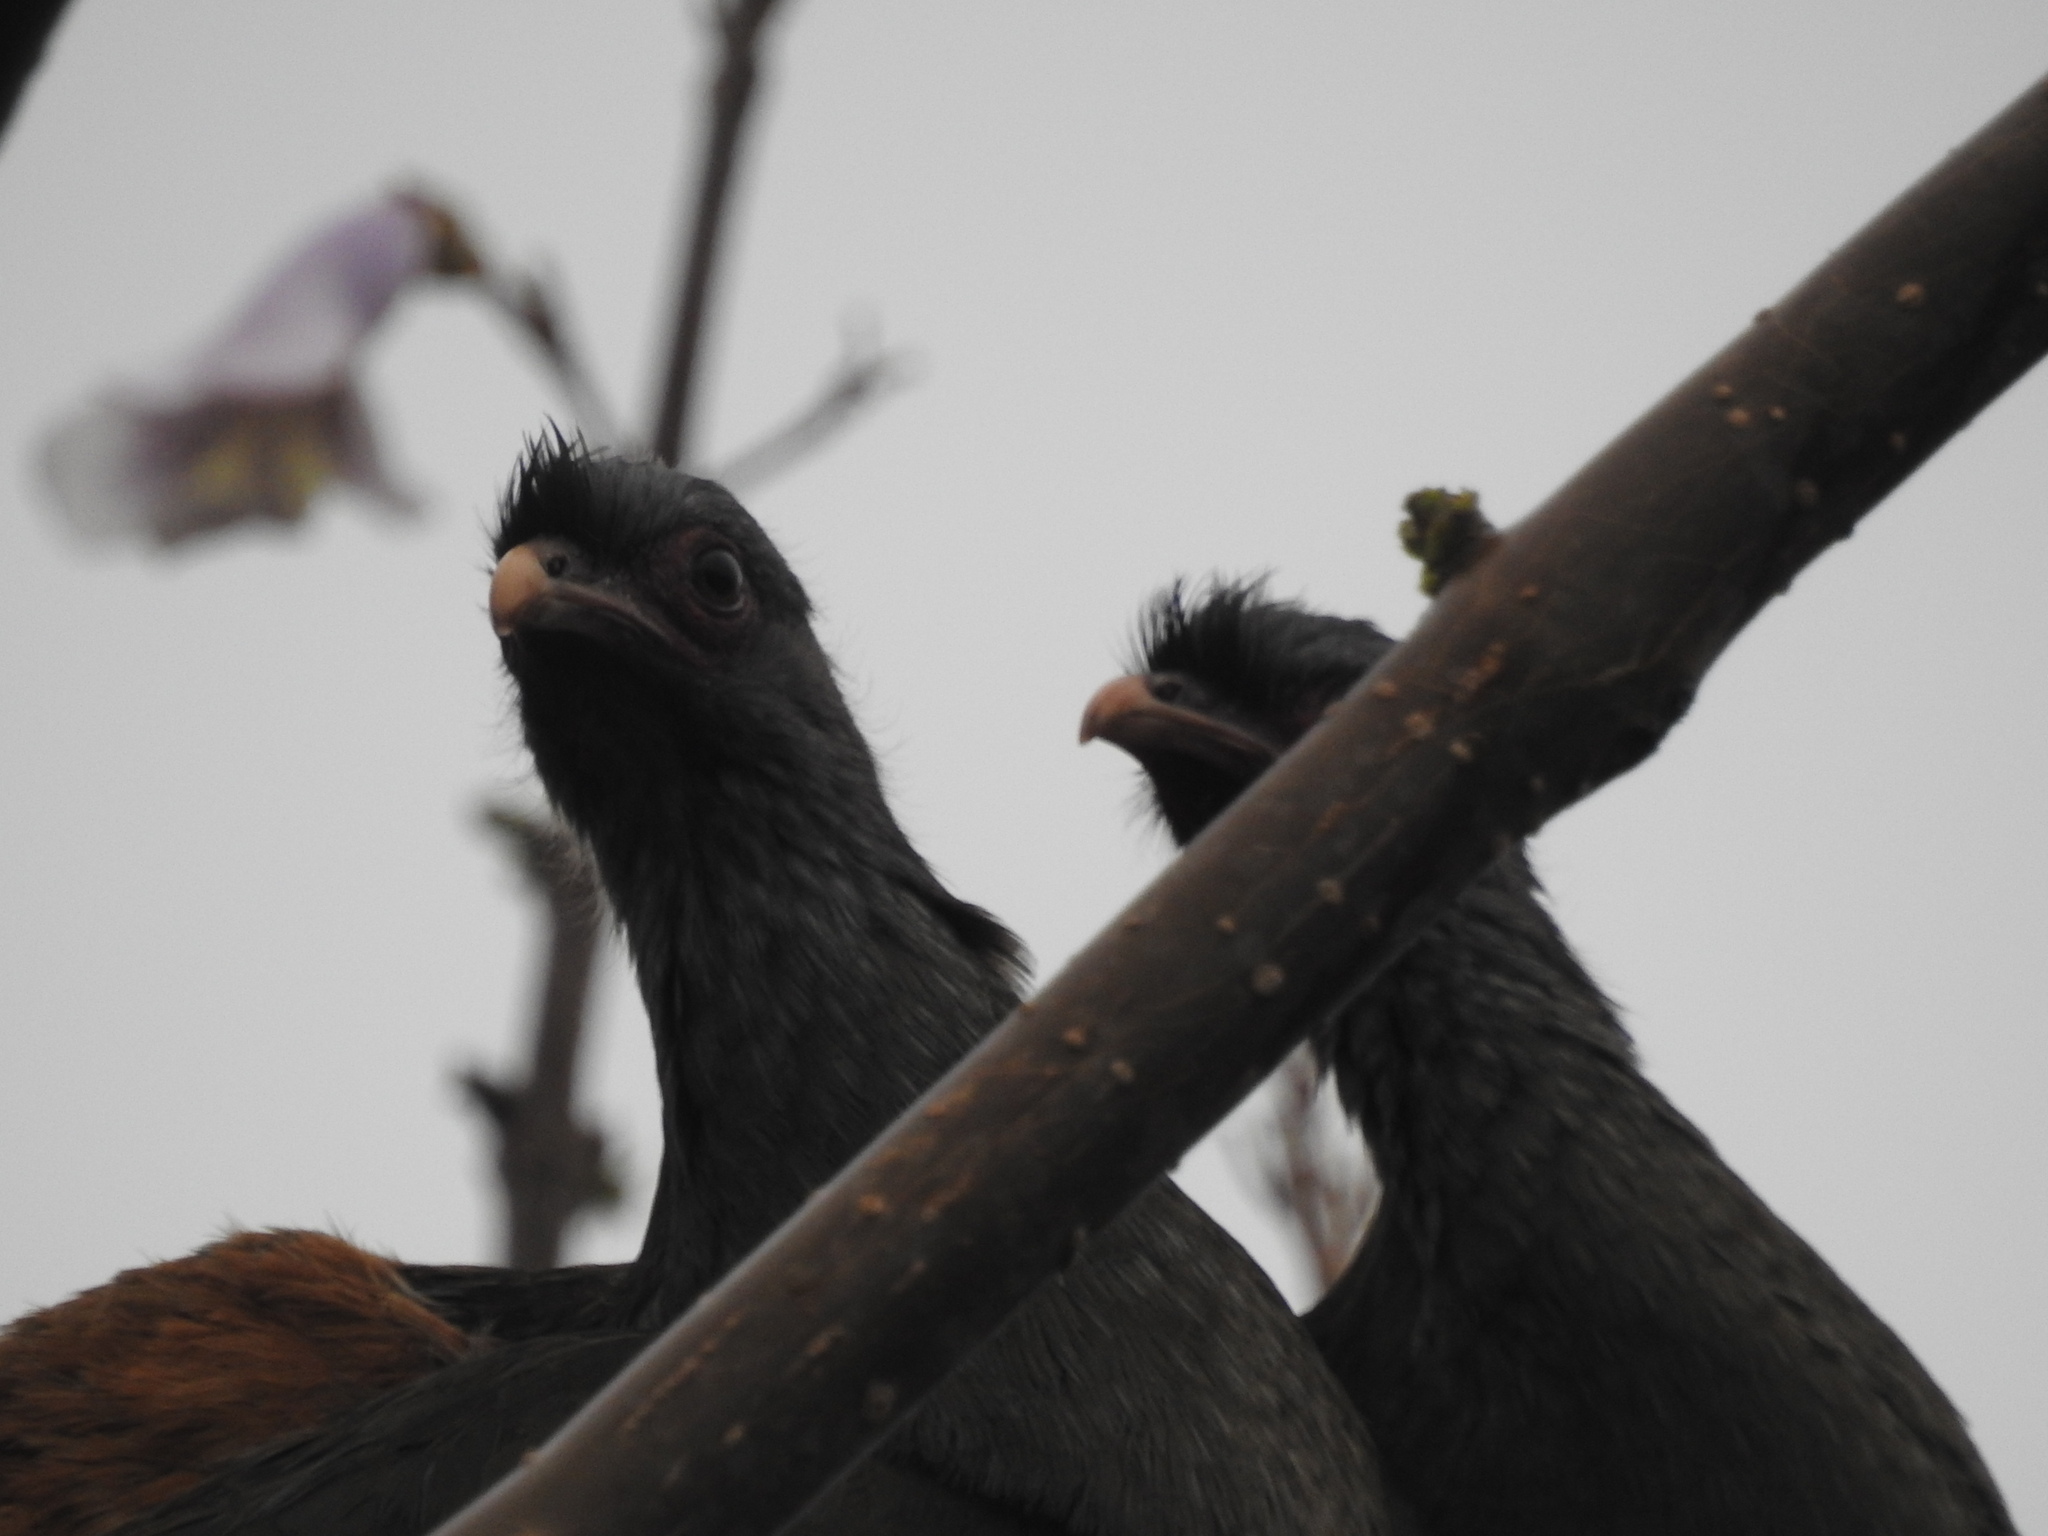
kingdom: Animalia
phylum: Chordata
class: Aves
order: Galliformes
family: Cracidae
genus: Ortalis
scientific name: Ortalis canicollis
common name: Chaco chachalaca
